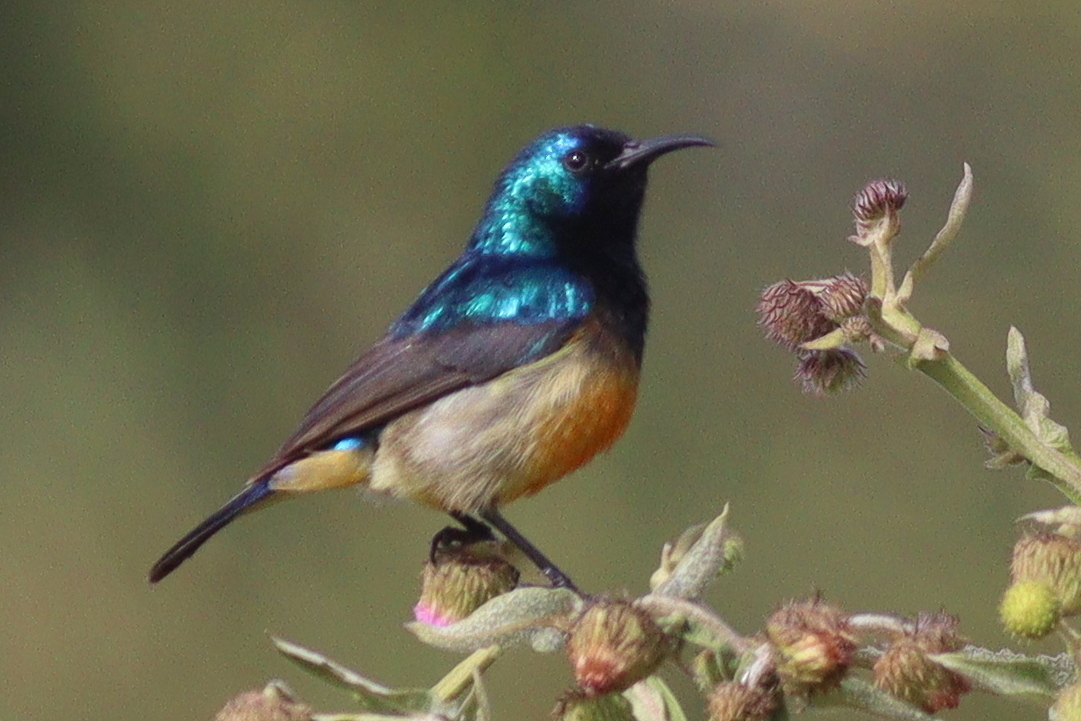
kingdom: Animalia
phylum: Chordata
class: Aves
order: Passeriformes
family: Nectariniidae
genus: Cinnyris
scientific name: Cinnyris venustus
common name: Variable sunbird
